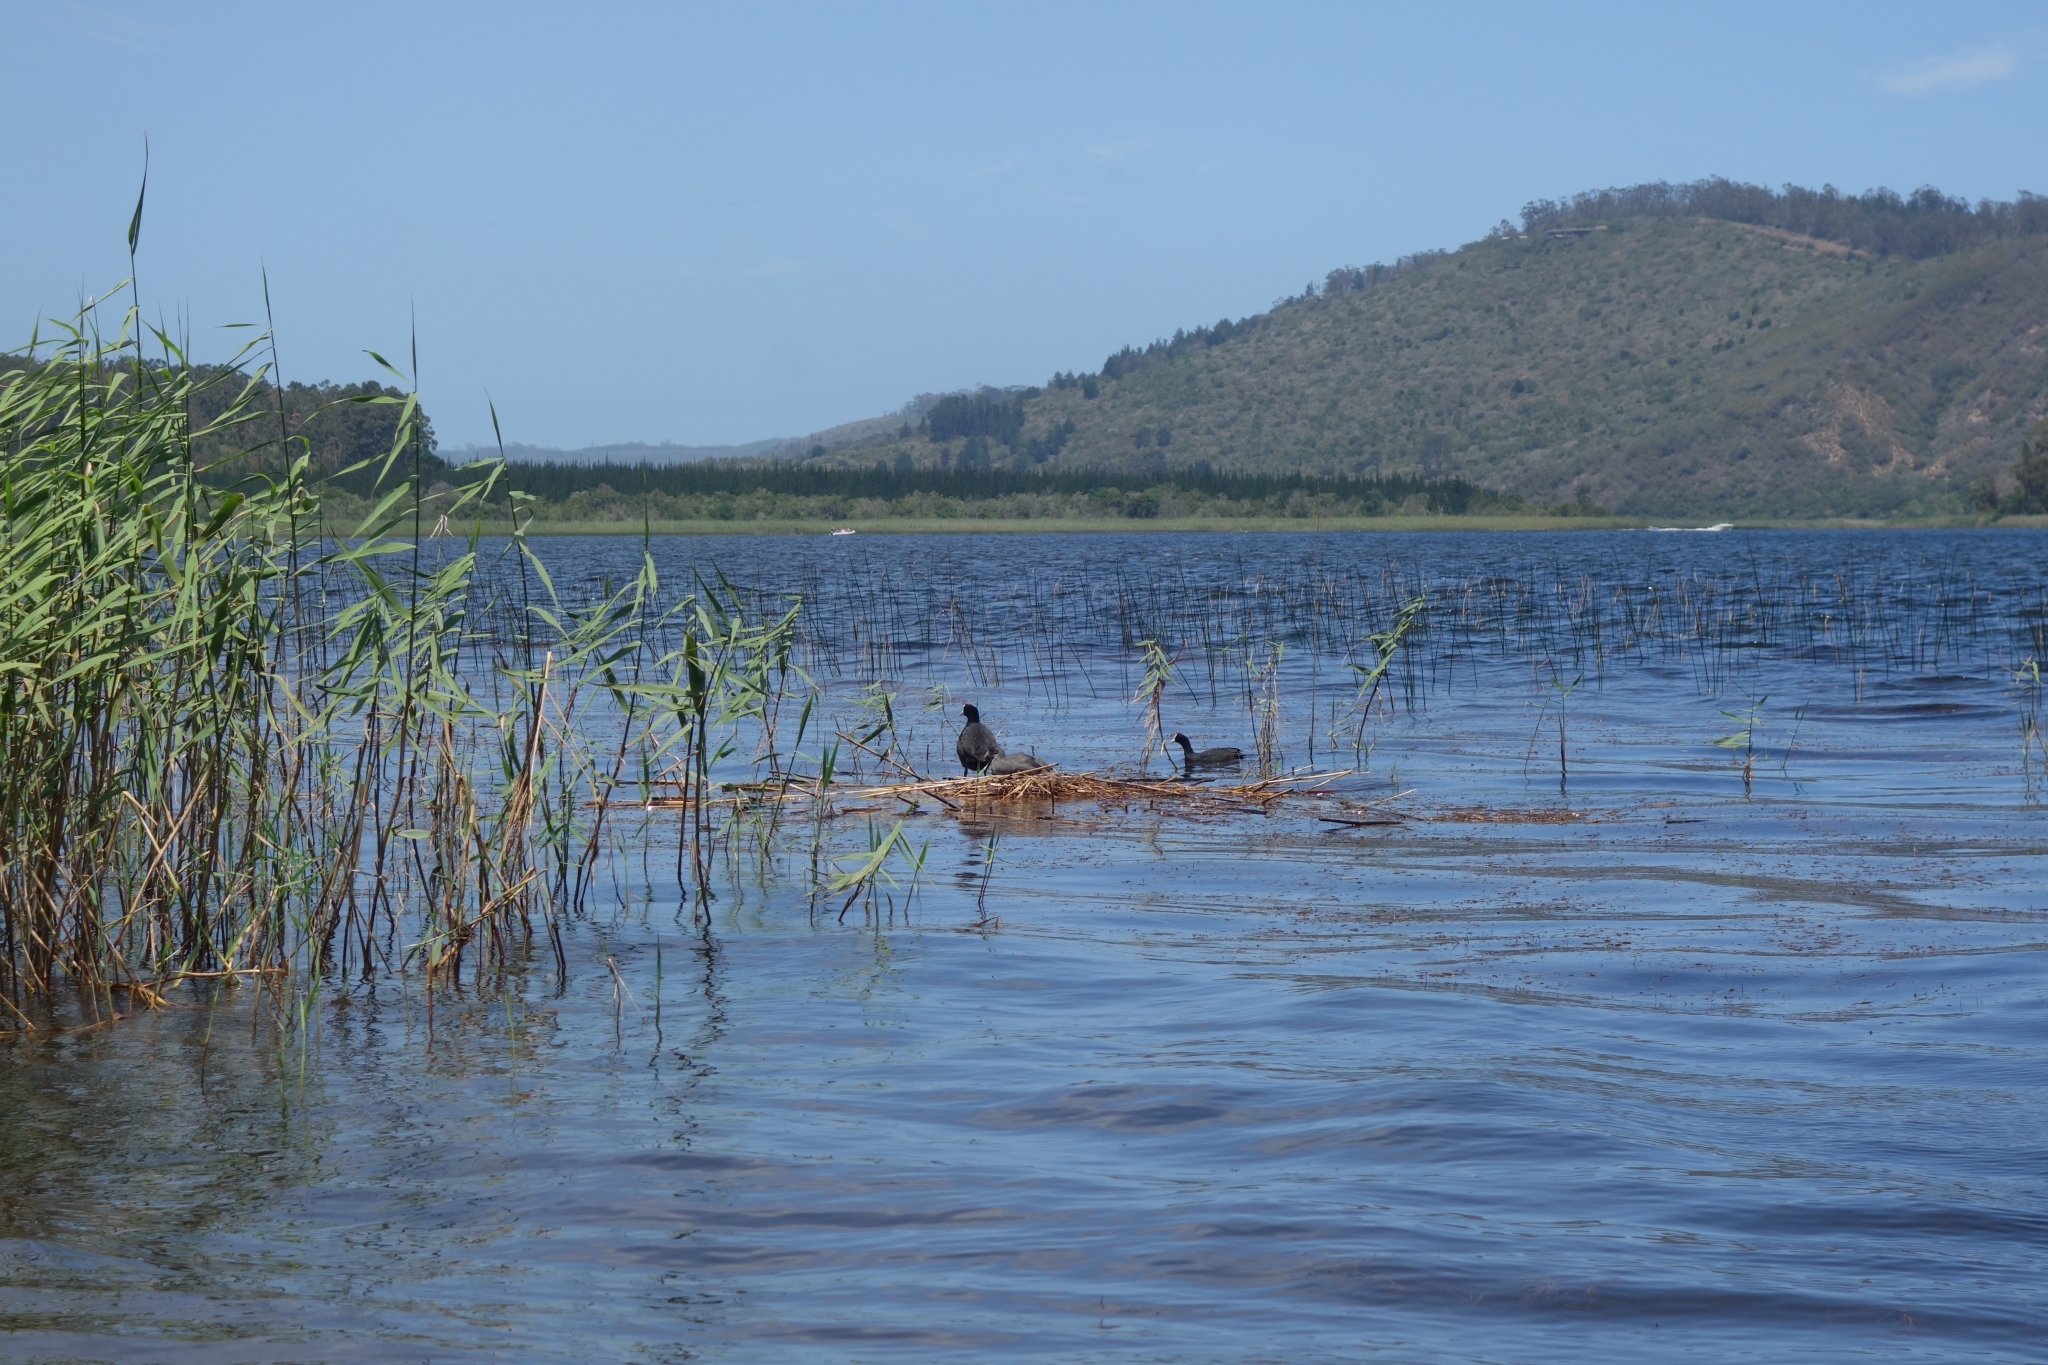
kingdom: Animalia
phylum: Chordata
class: Aves
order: Gruiformes
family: Rallidae
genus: Fulica
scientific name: Fulica cristata
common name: Red-knobbed coot
